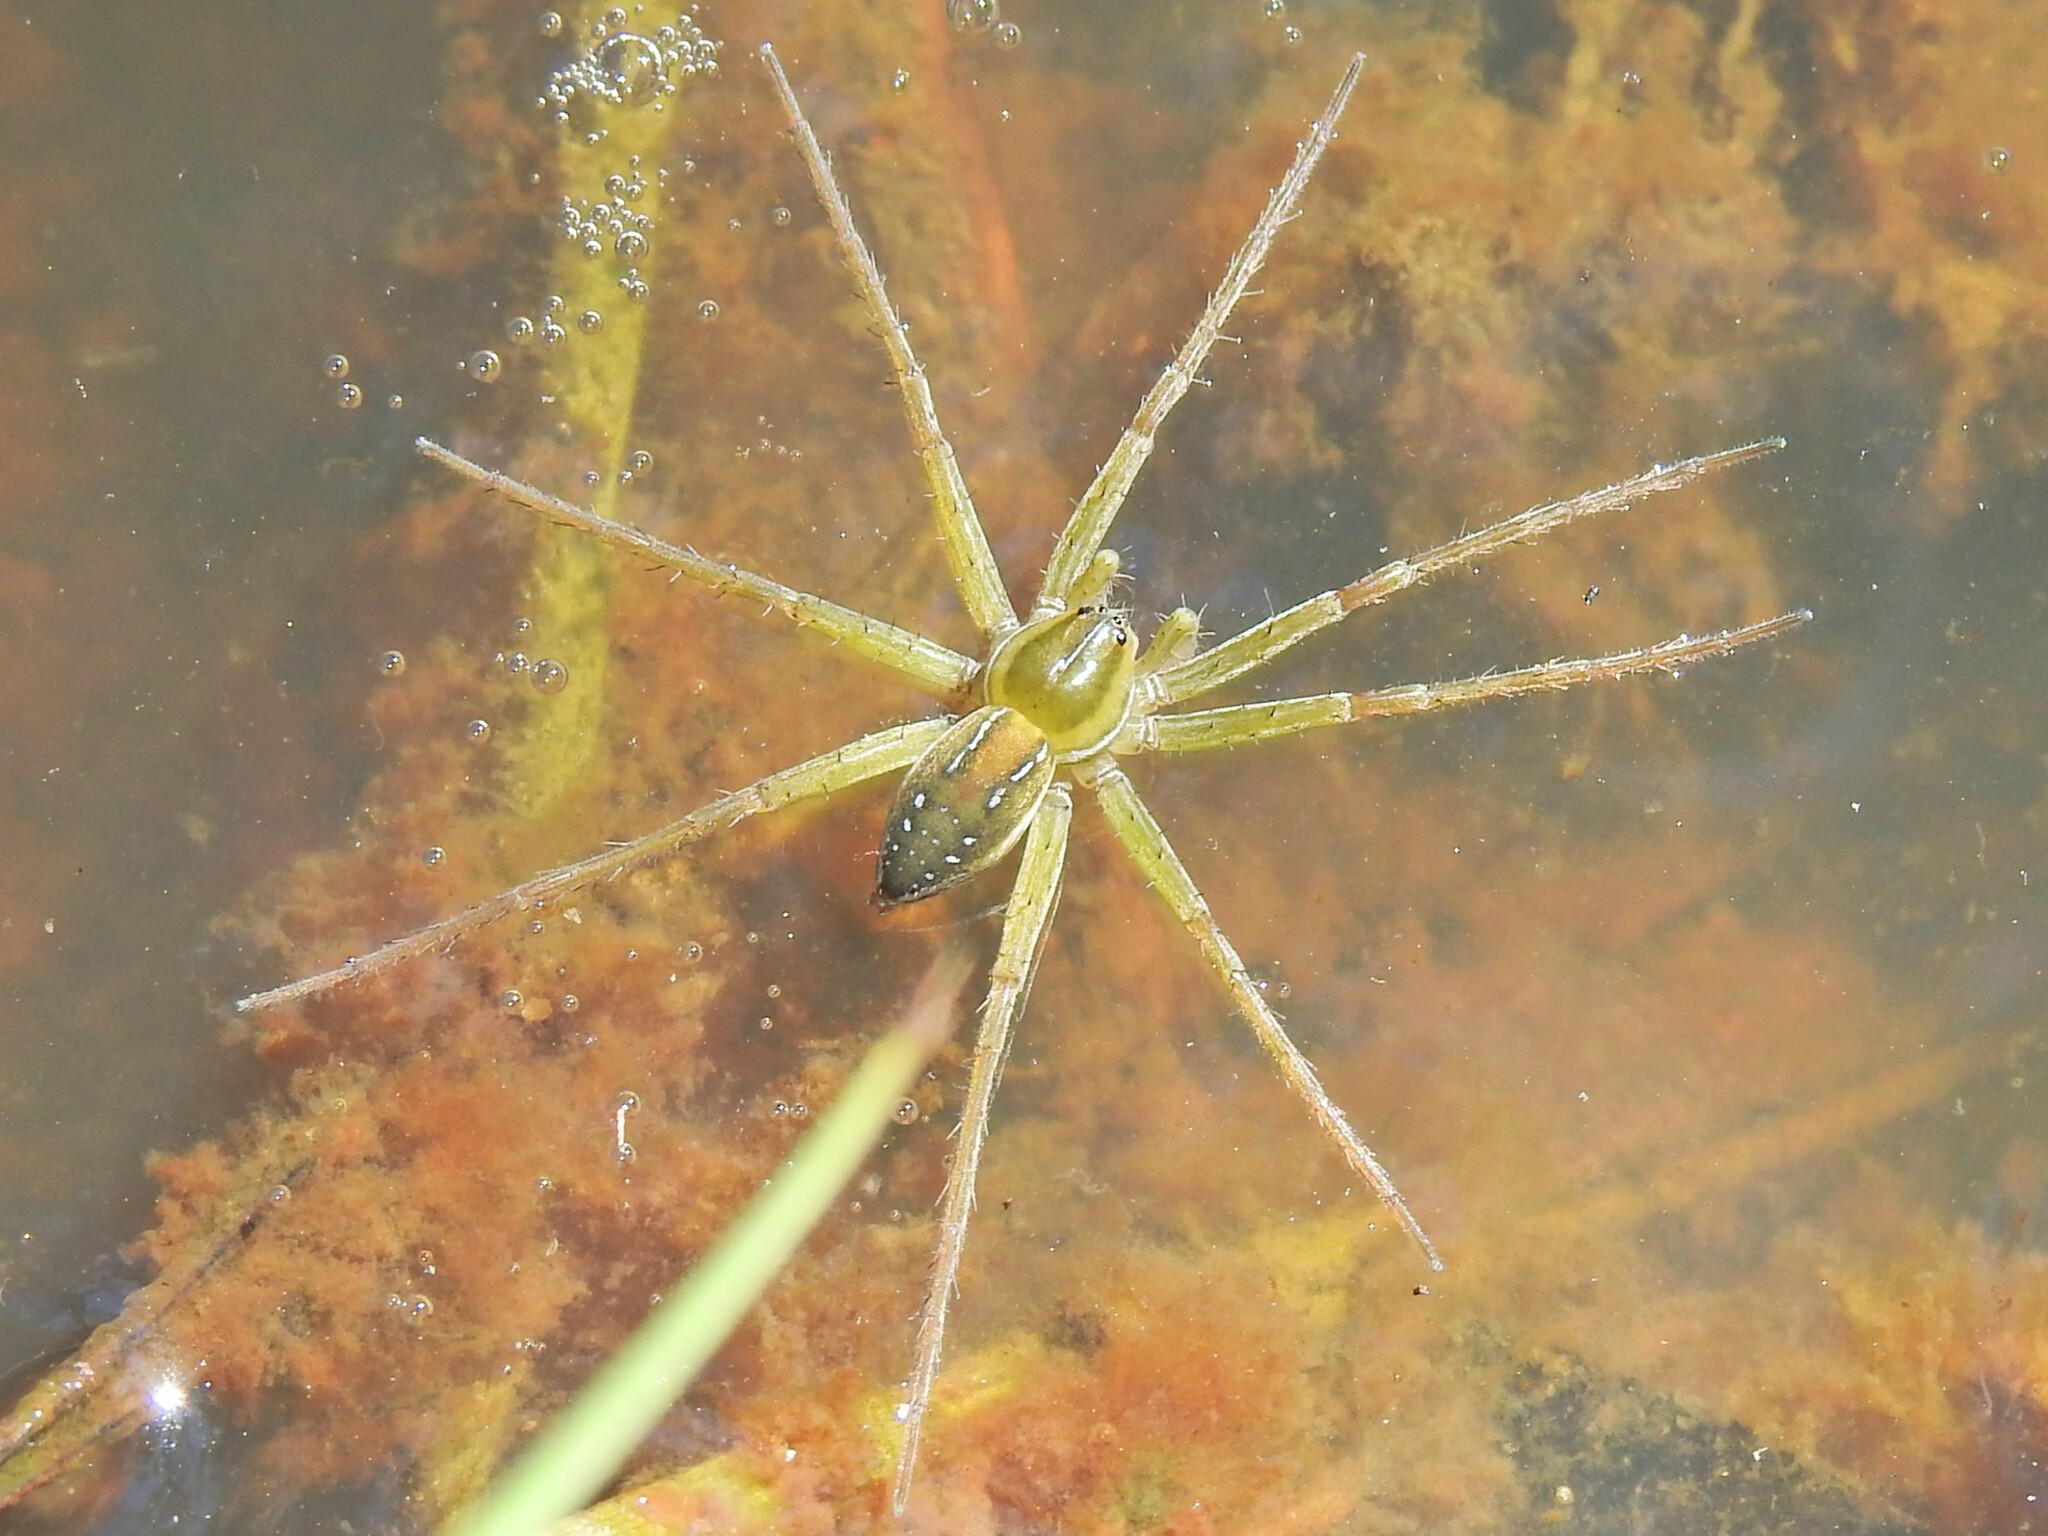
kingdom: Animalia
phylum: Arthropoda
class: Arachnida
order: Araneae
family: Pisauridae
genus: Dolomedes
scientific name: Dolomedes facetus
